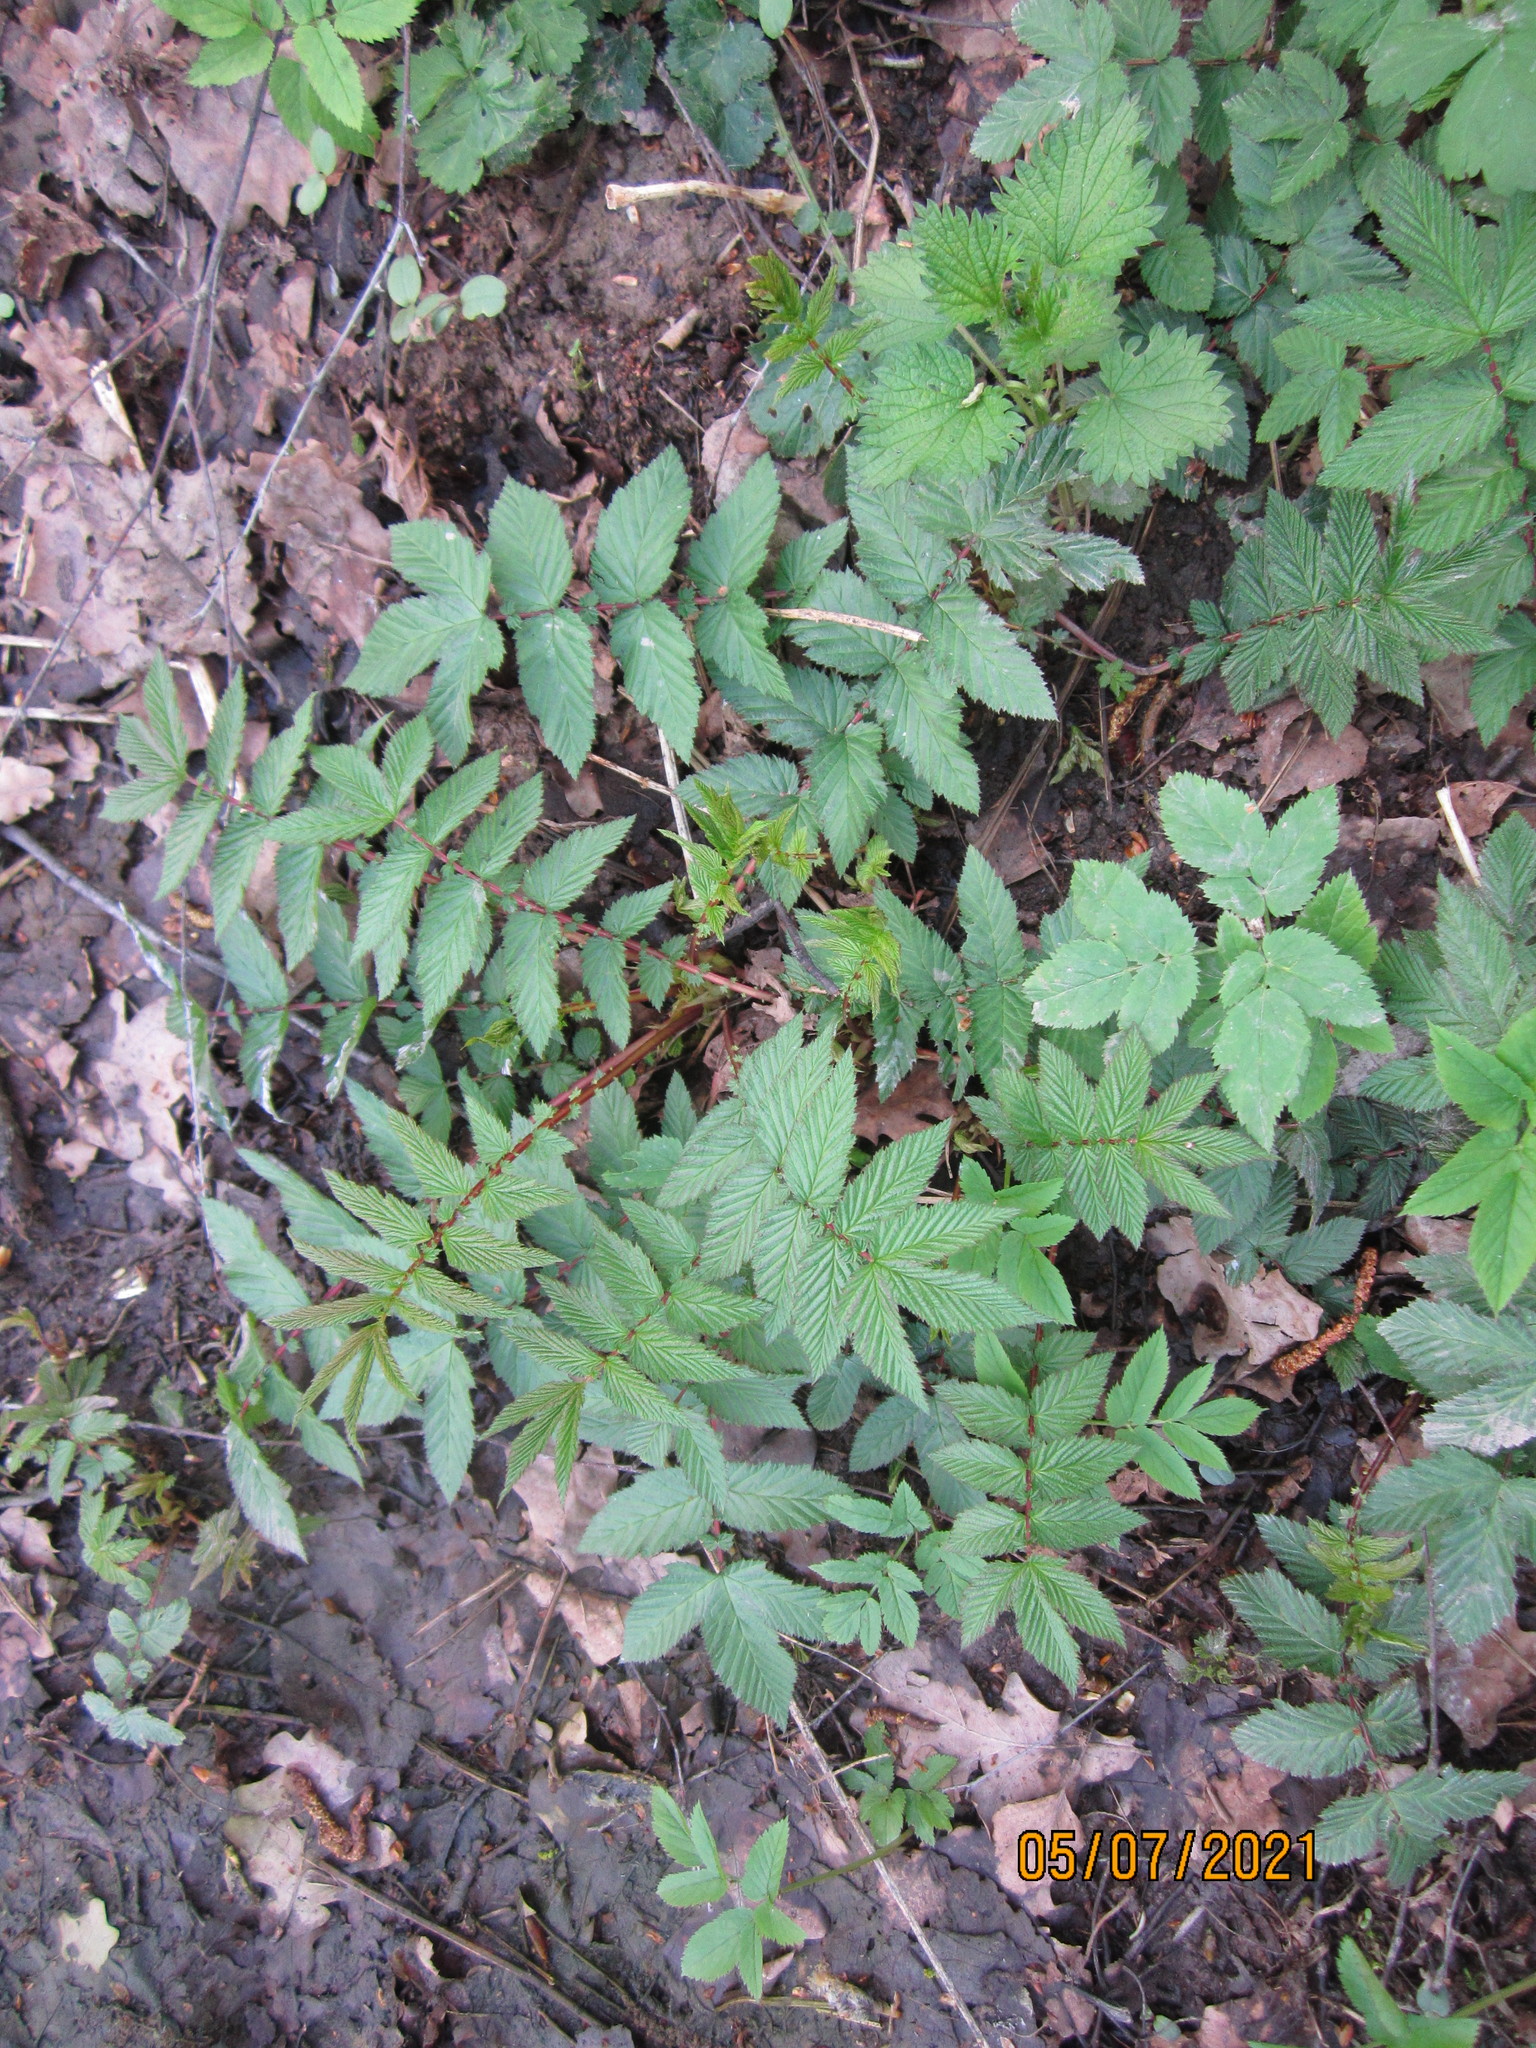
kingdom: Plantae
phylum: Tracheophyta
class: Magnoliopsida
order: Rosales
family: Rosaceae
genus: Filipendula
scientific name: Filipendula ulmaria
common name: Meadowsweet
